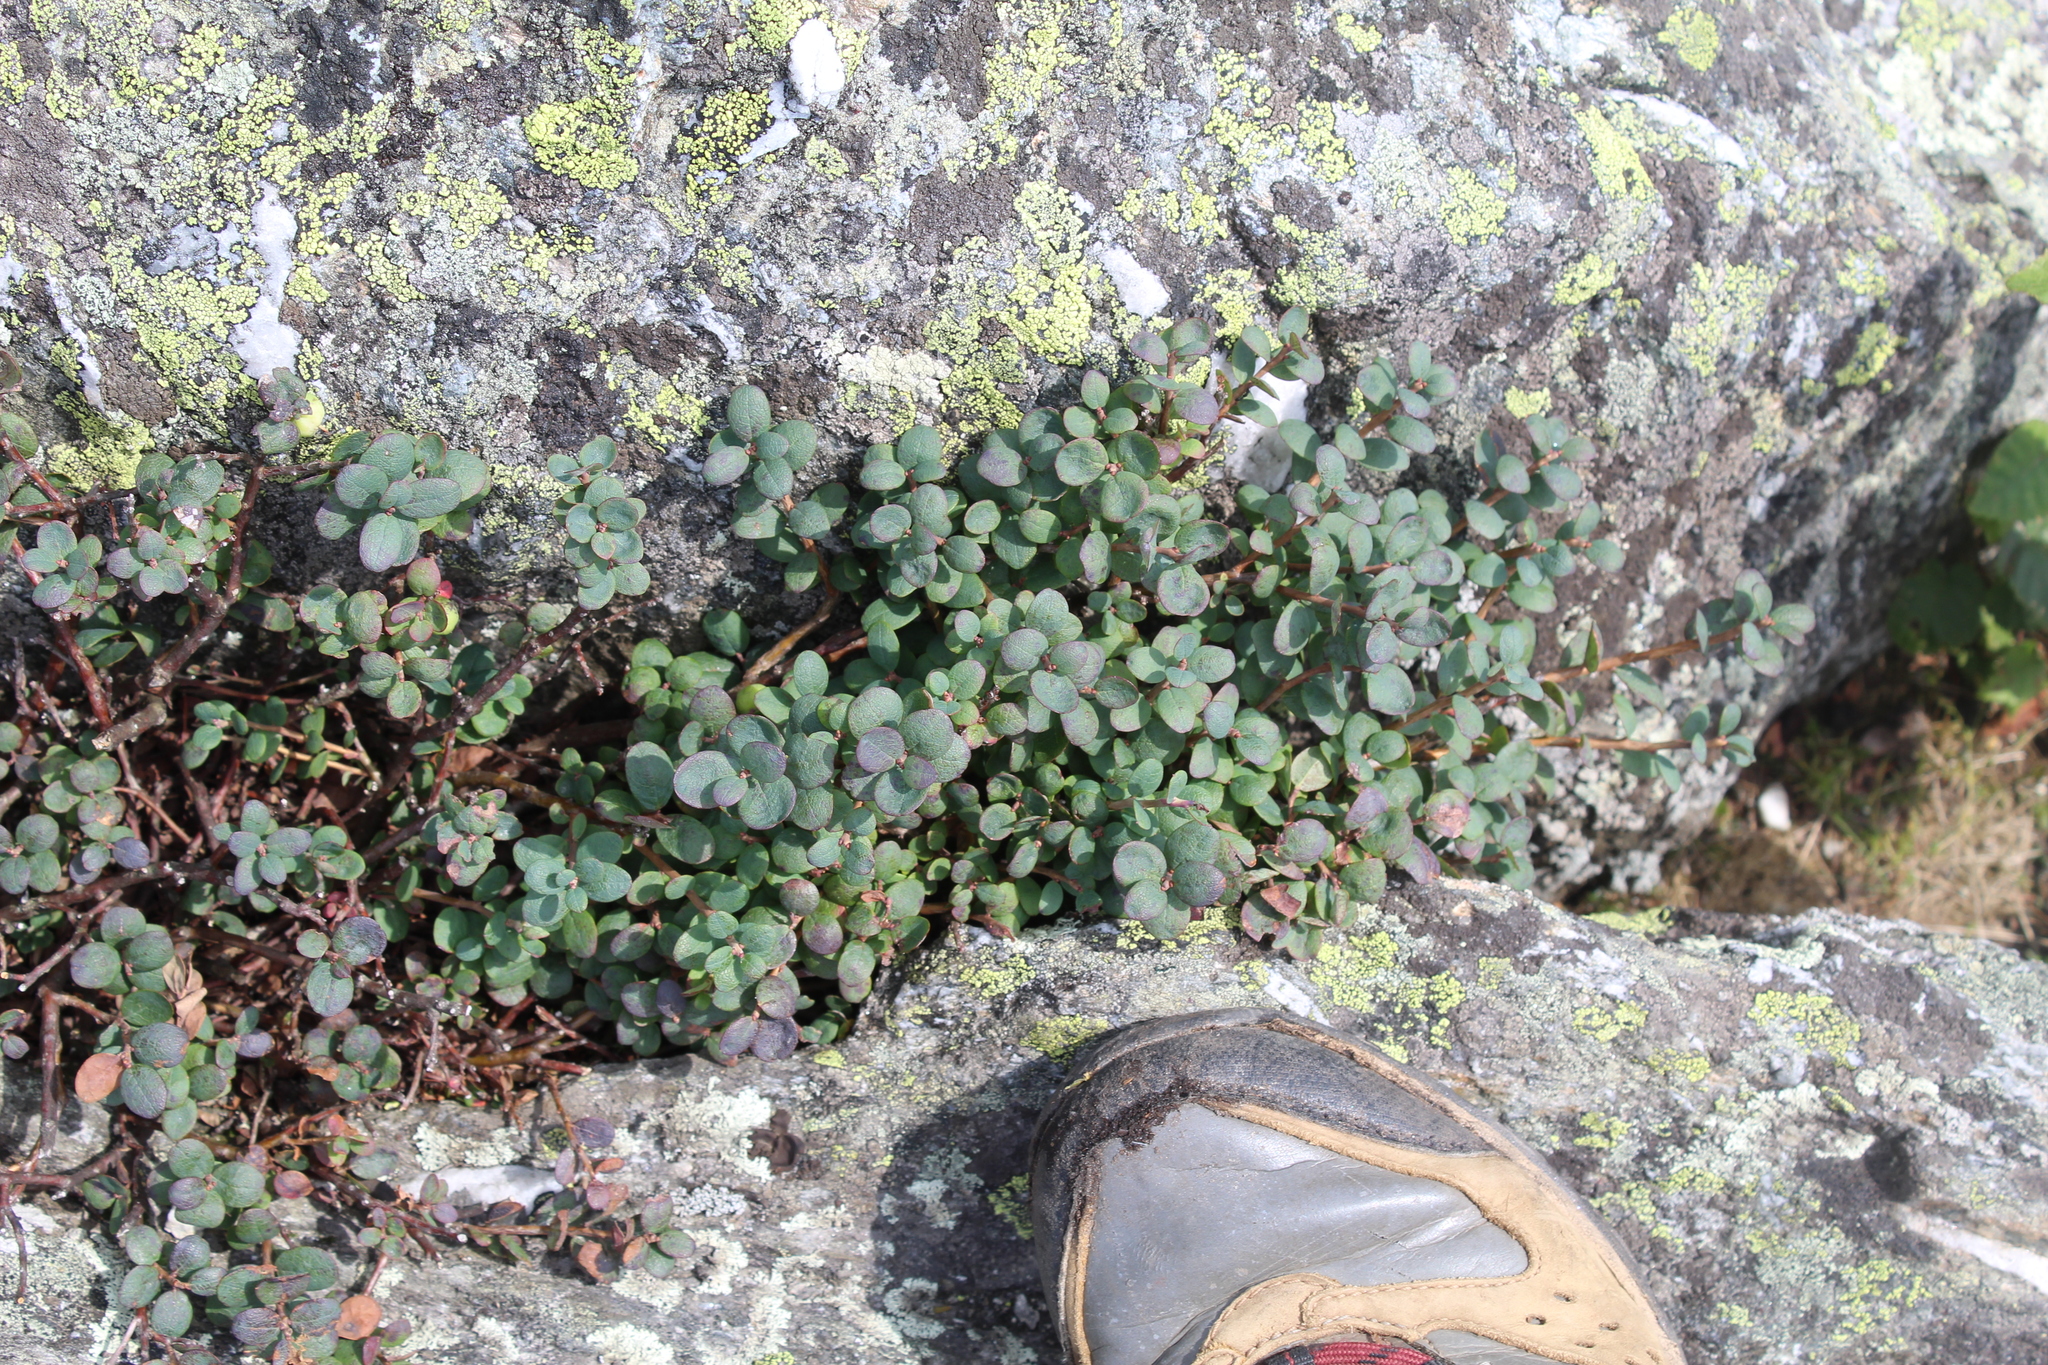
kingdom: Plantae
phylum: Tracheophyta
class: Magnoliopsida
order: Ericales
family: Ericaceae
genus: Vaccinium
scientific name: Vaccinium uliginosum
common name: Bog bilberry
